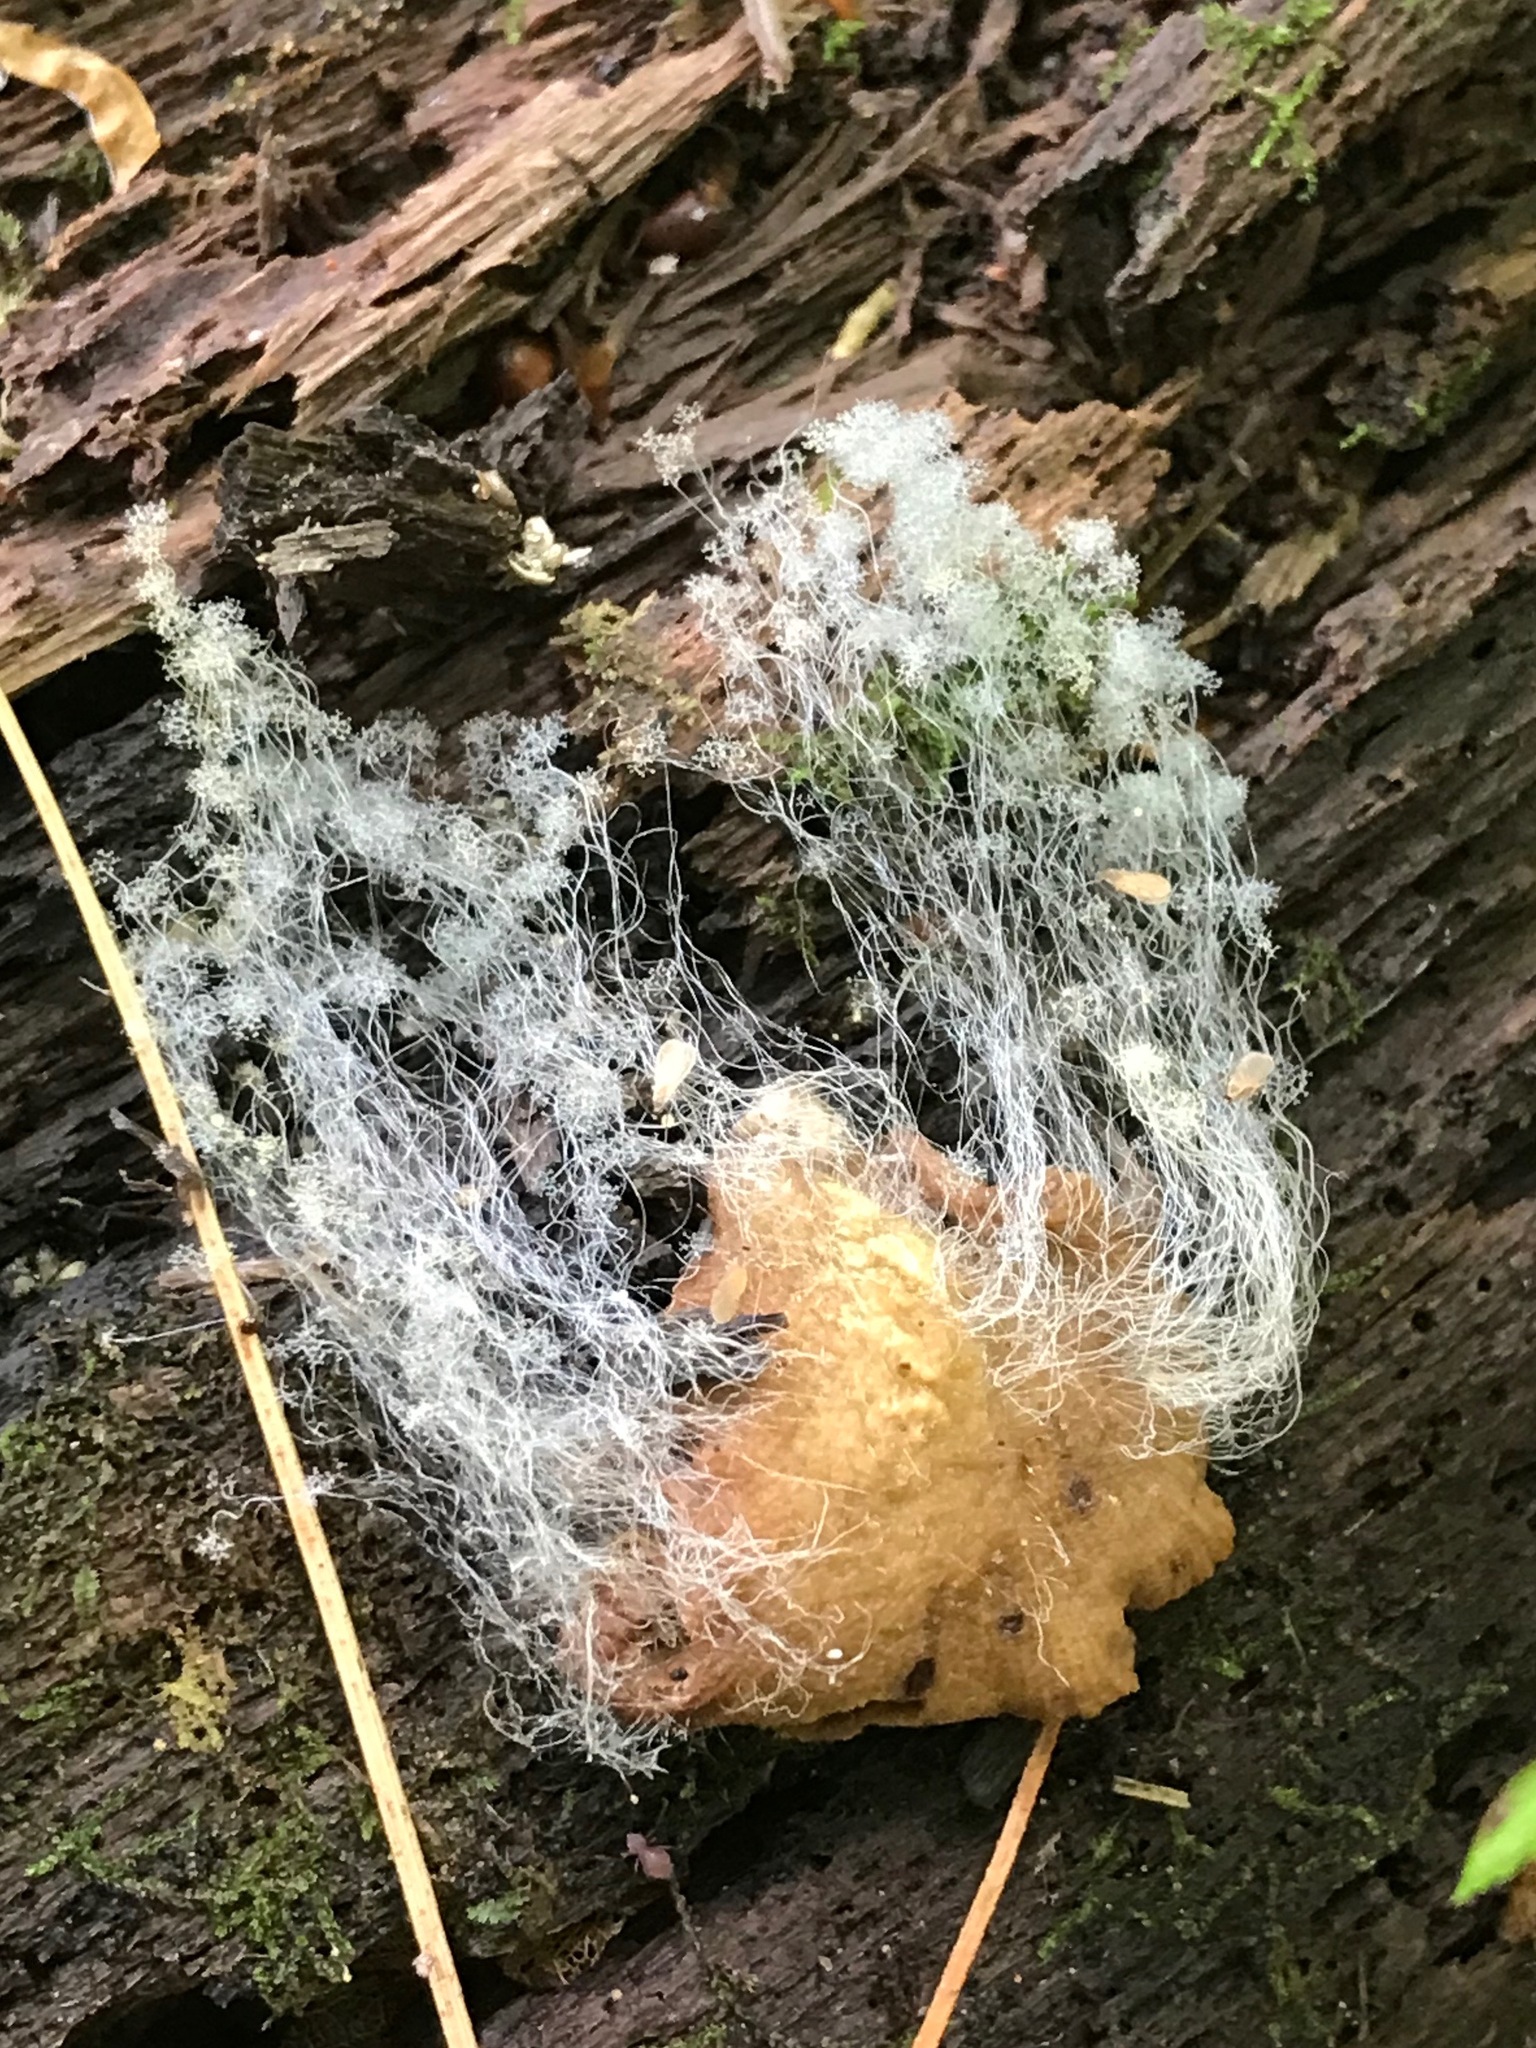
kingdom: Fungi
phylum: Mucoromycota
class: Mucoromycetes
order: Mucorales
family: Rhizopodaceae
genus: Syzygites
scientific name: Syzygites megalocarpus
